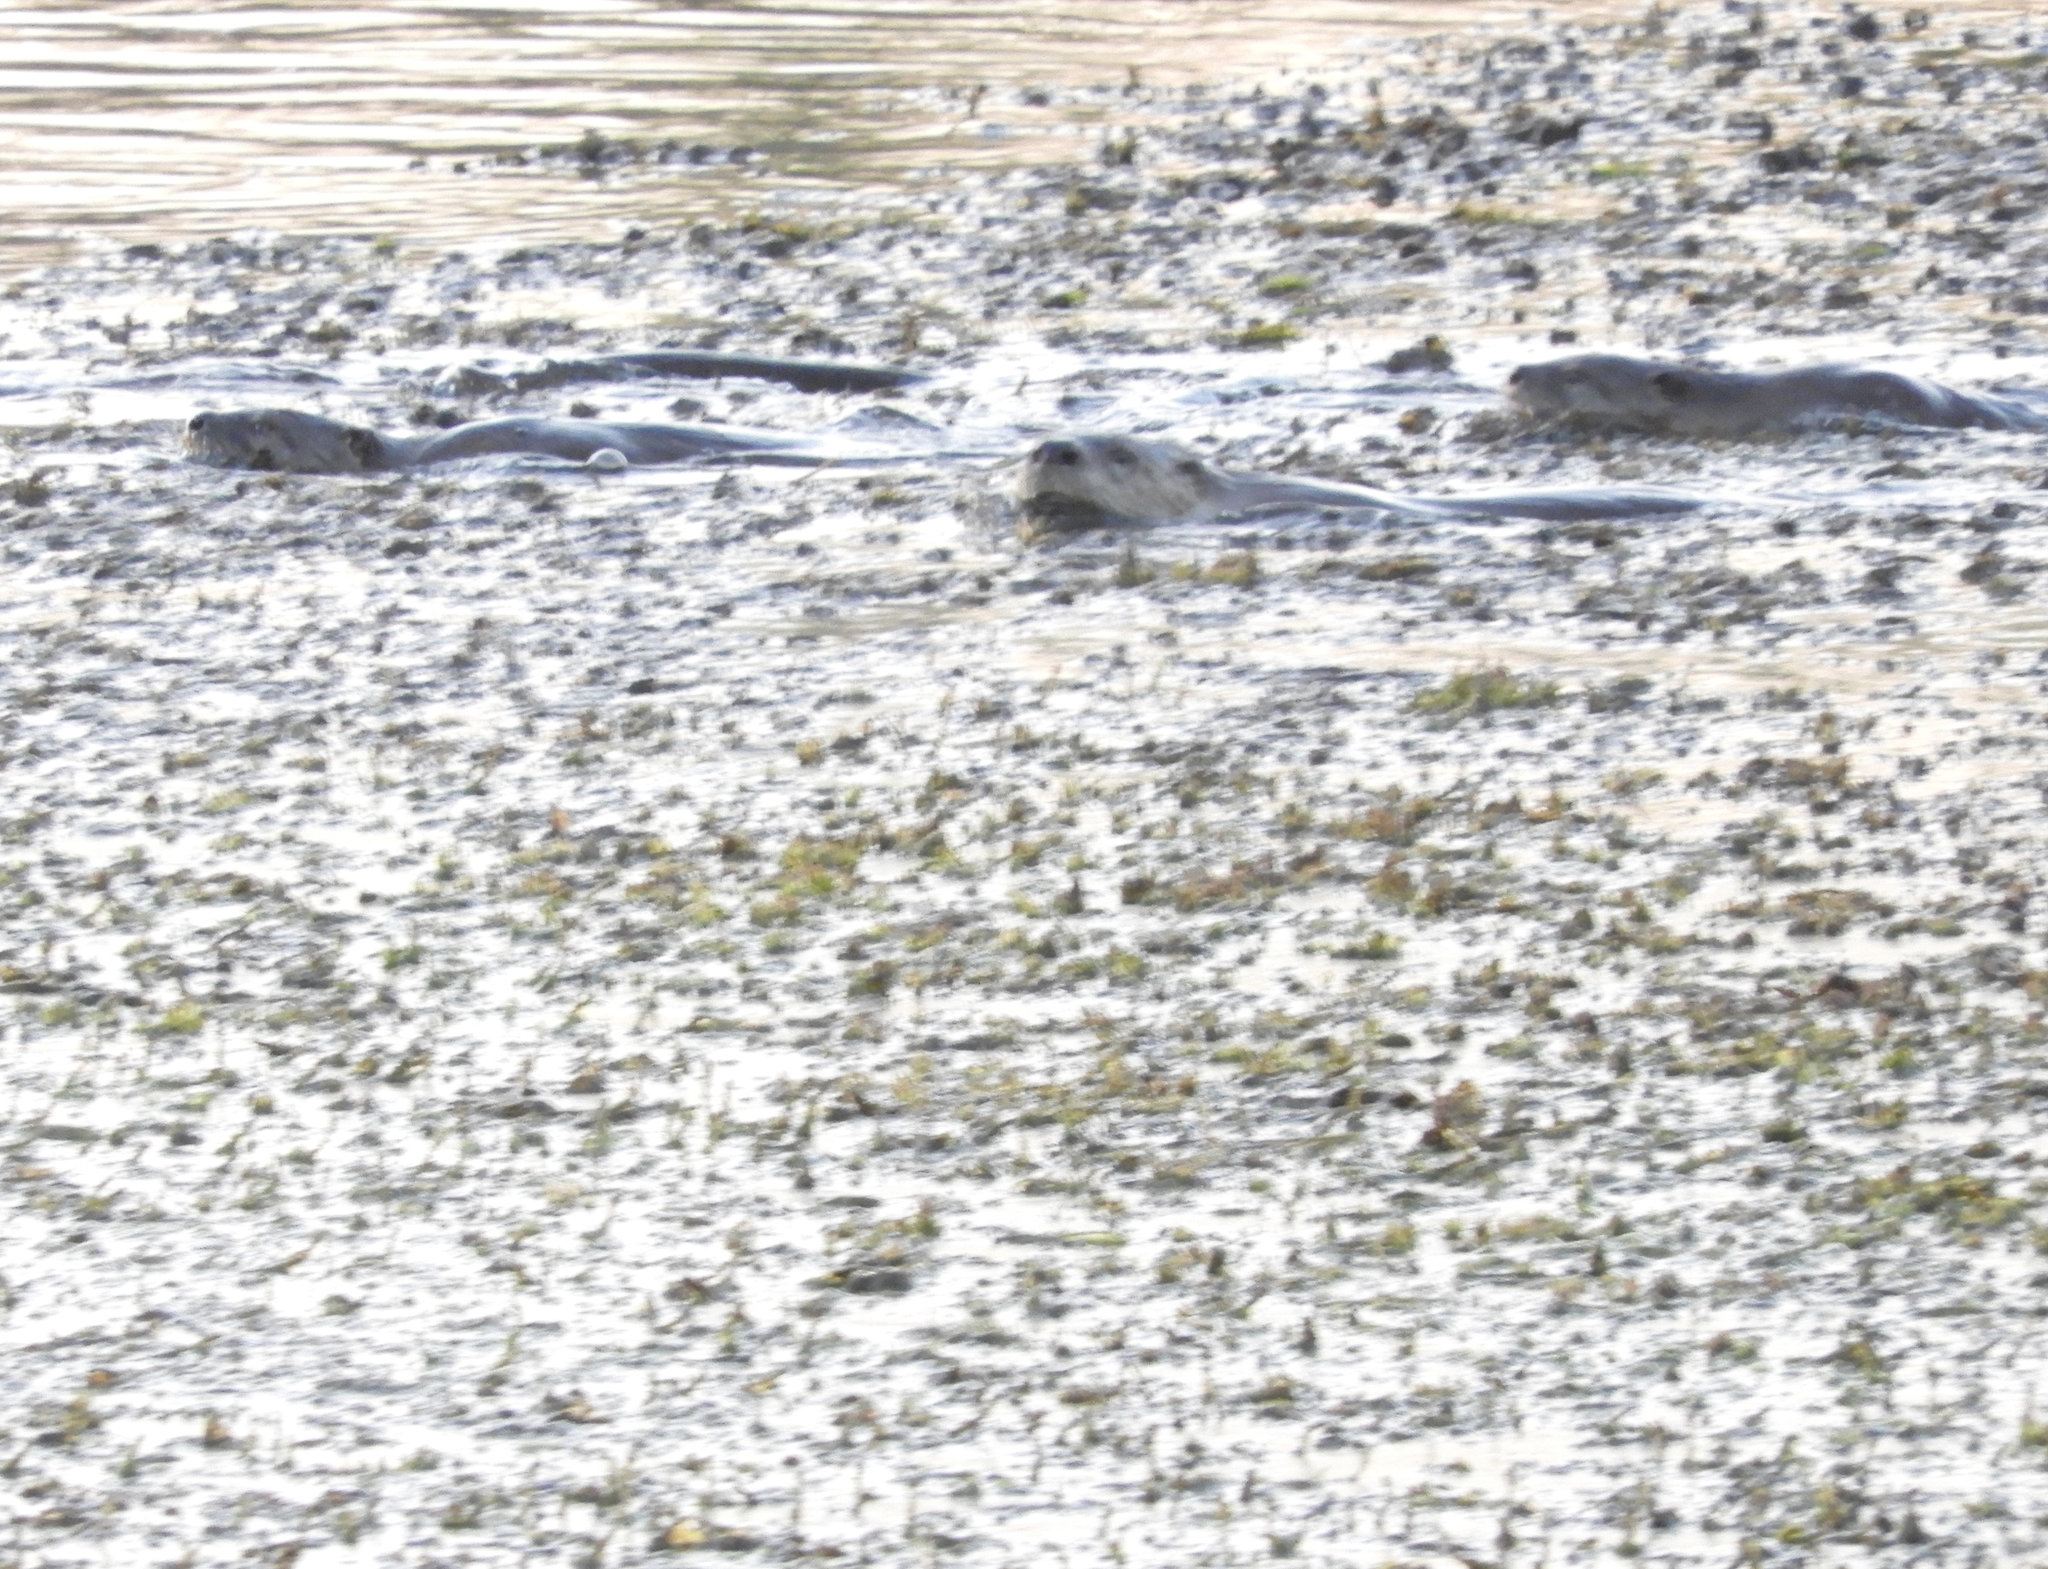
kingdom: Animalia
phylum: Chordata
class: Mammalia
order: Carnivora
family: Mustelidae
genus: Lontra
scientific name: Lontra canadensis
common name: North american river otter
